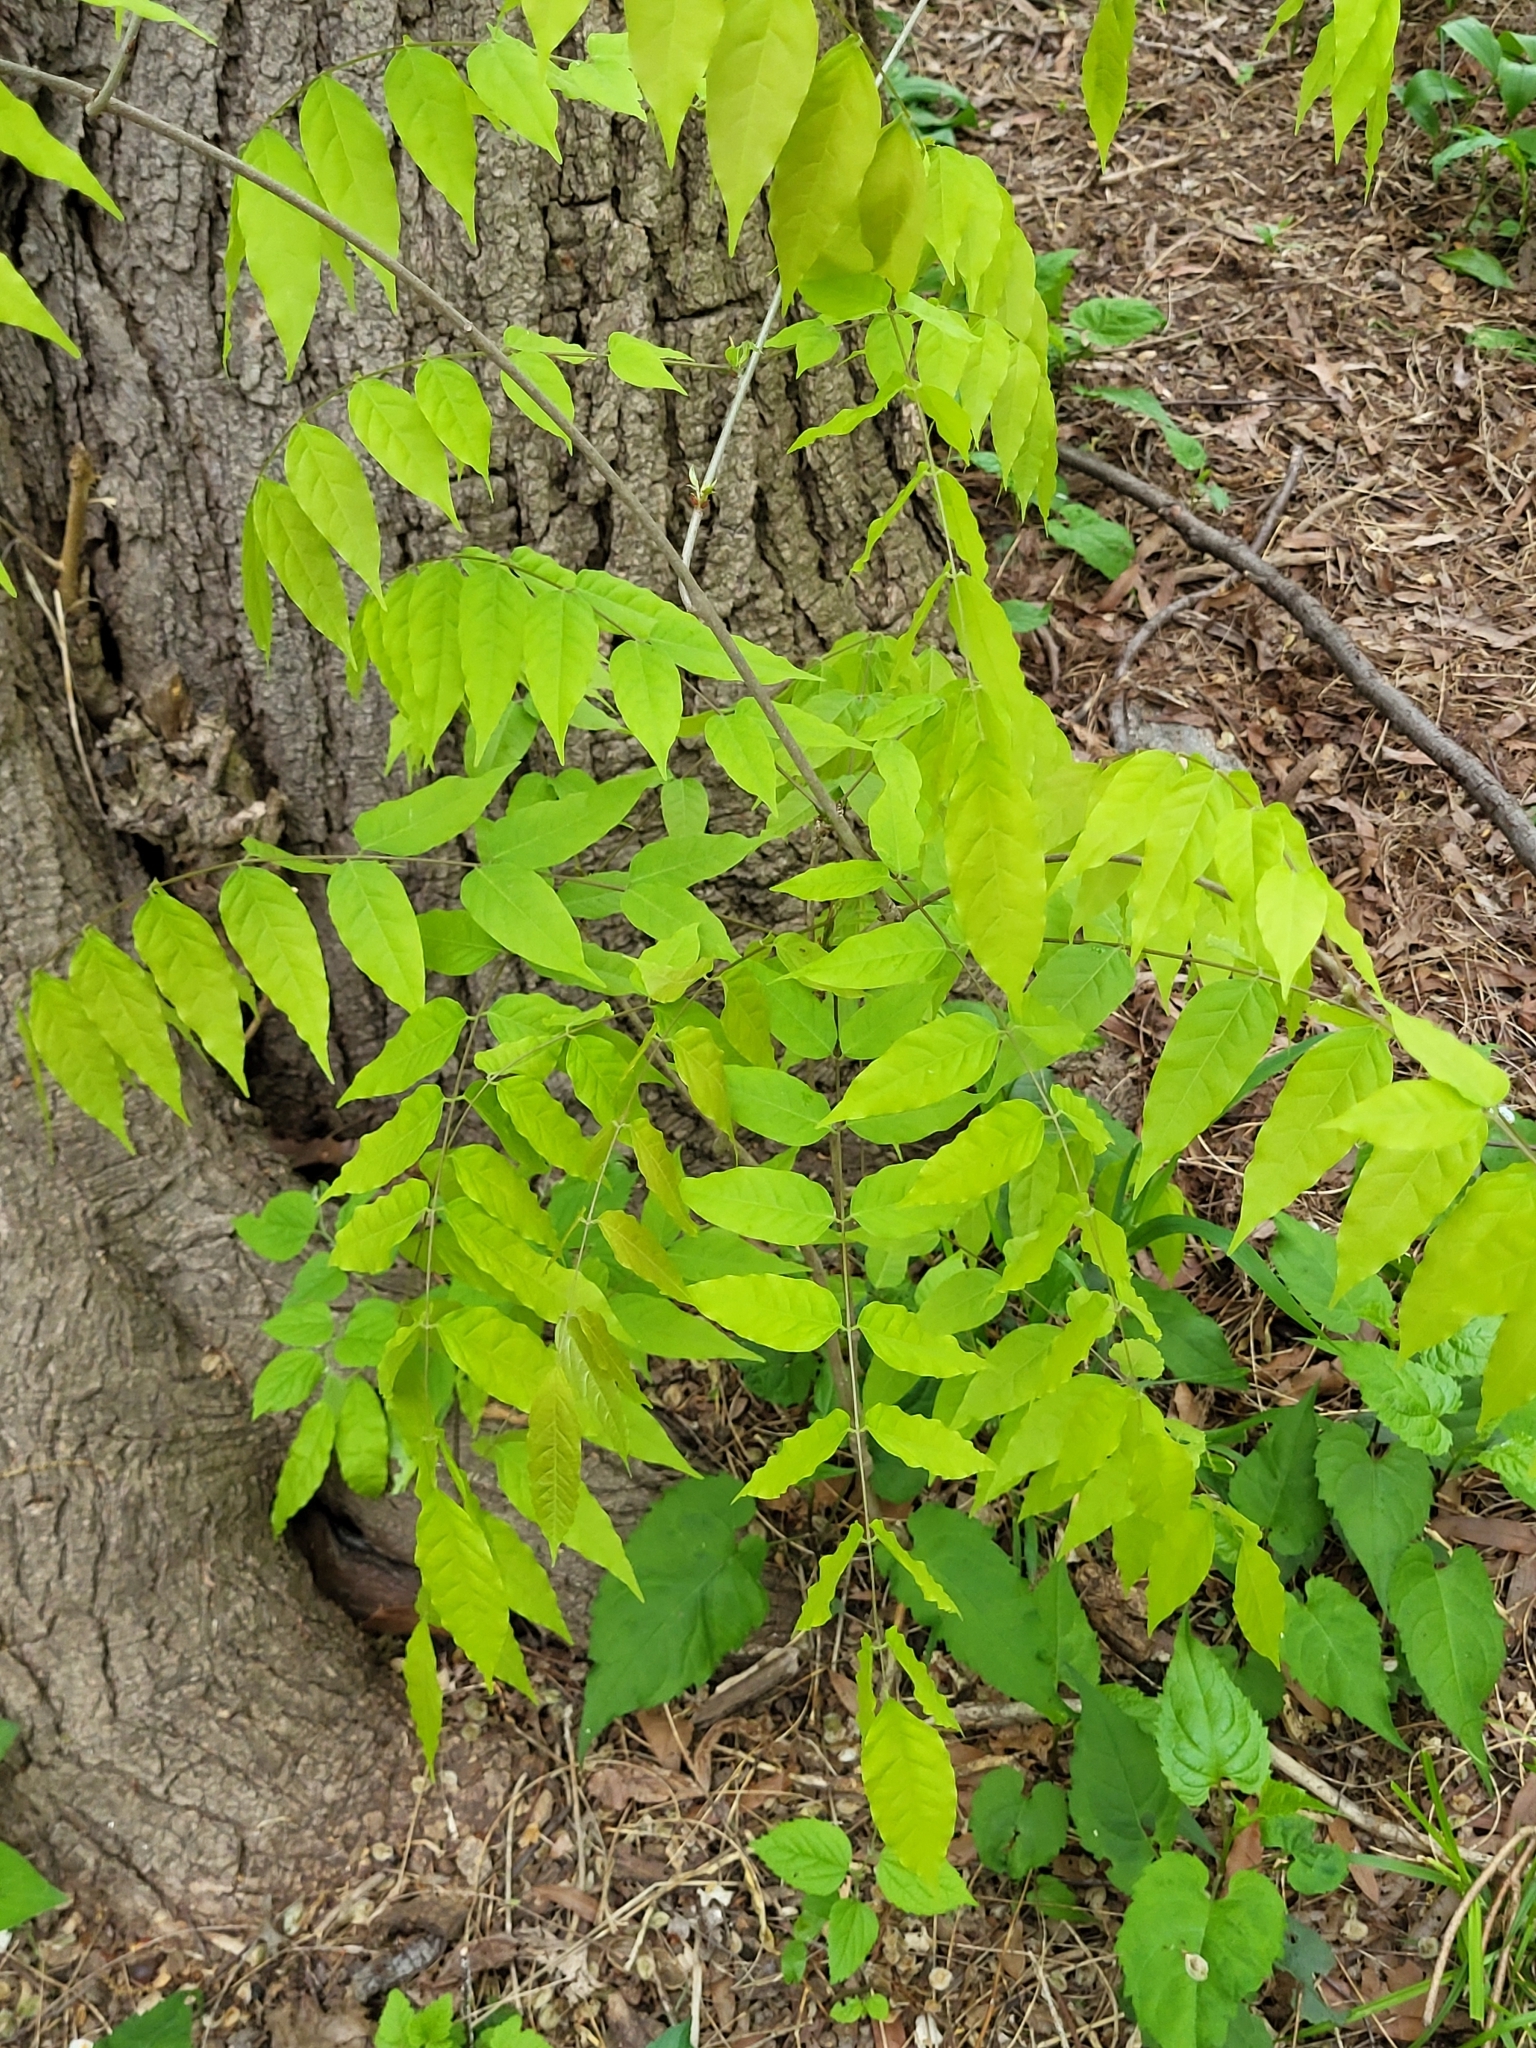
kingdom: Plantae
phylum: Tracheophyta
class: Magnoliopsida
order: Fabales
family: Fabaceae
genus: Wisteria
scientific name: Wisteria sinensis
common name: Chinese wisteria
